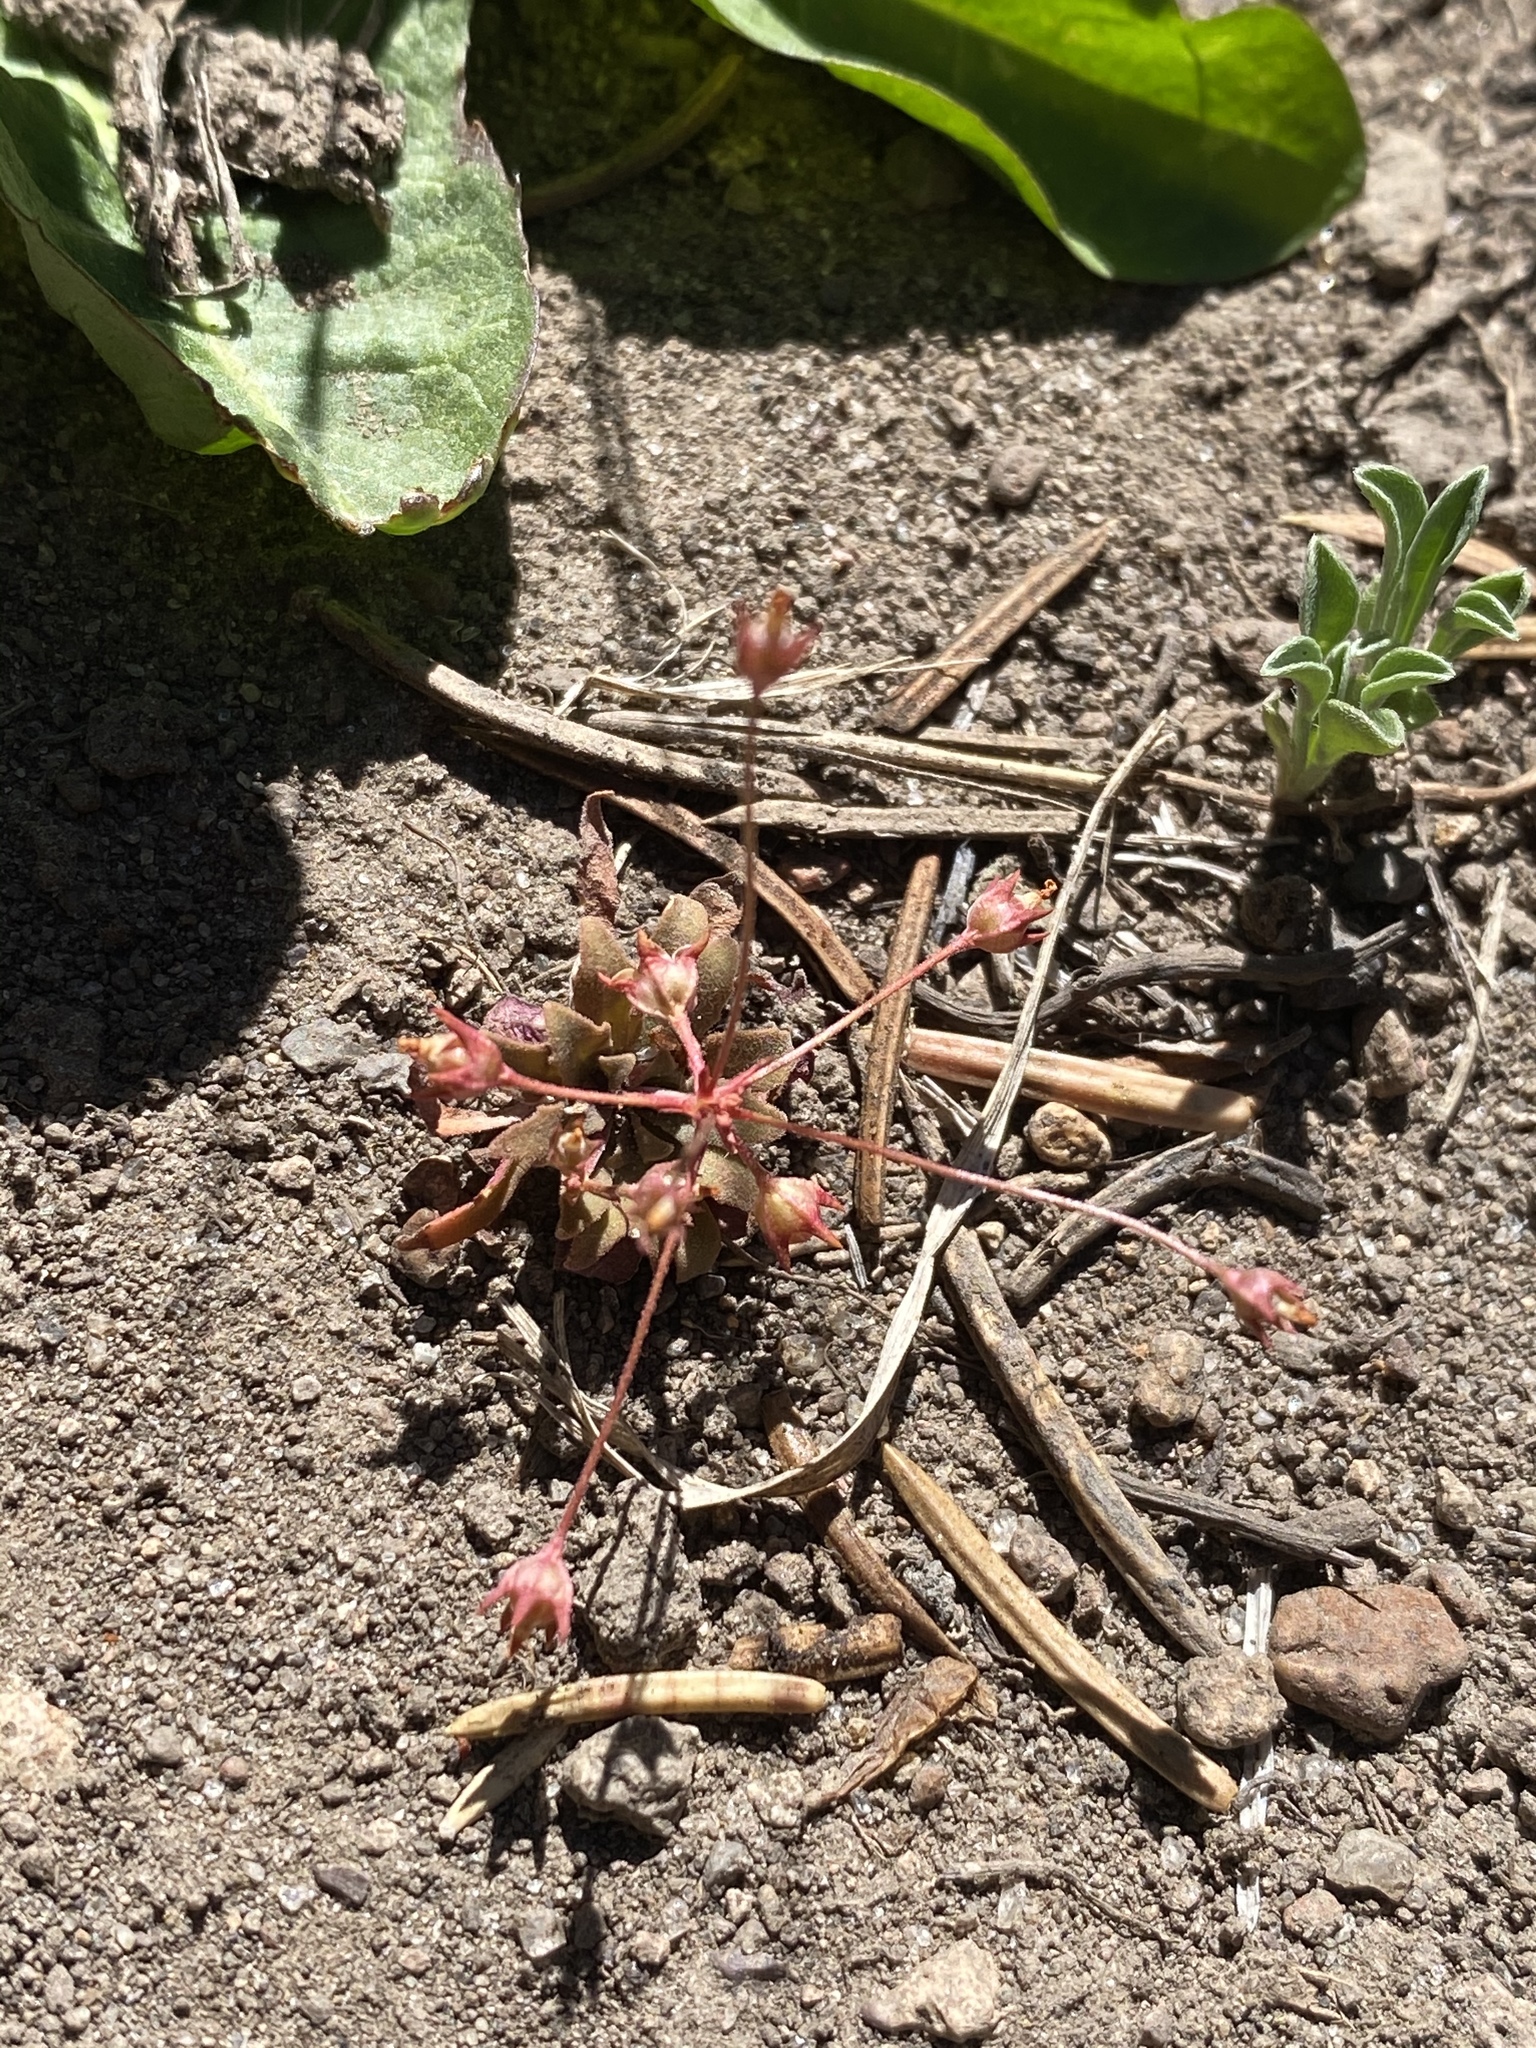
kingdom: Plantae
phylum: Tracheophyta
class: Magnoliopsida
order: Ericales
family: Primulaceae
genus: Androsace
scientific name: Androsace septentrionalis
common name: Hairy northern fairy-candelabra
